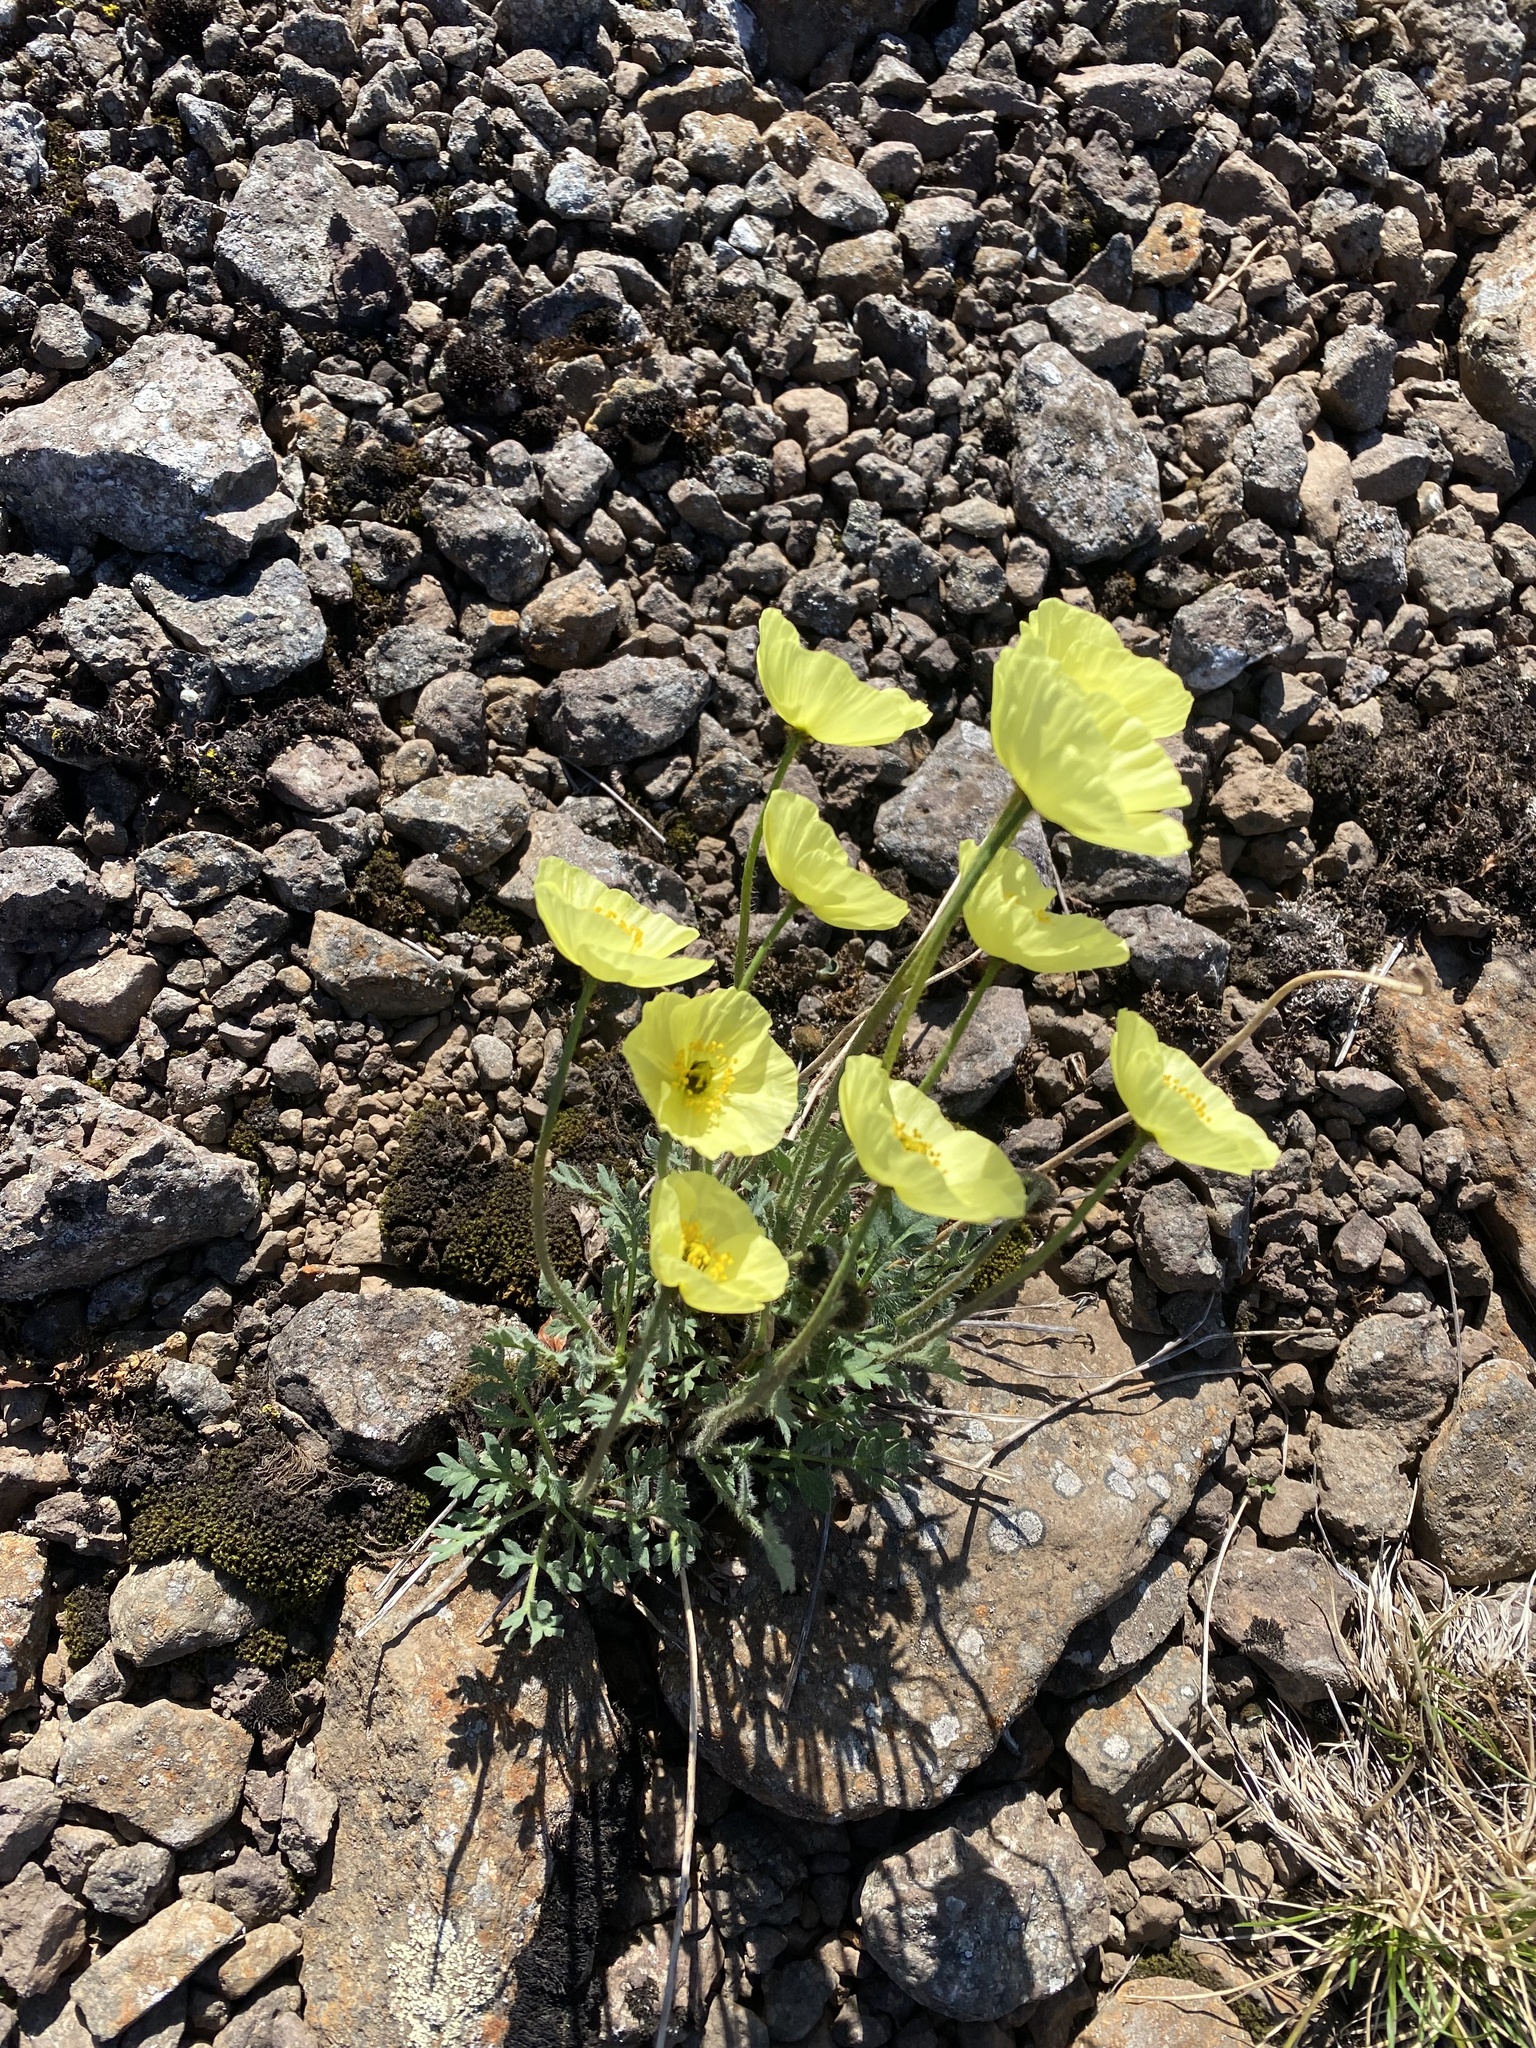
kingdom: Plantae
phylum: Tracheophyta
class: Magnoliopsida
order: Ranunculales
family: Papaveraceae
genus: Papaver
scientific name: Papaver pulvinatum
